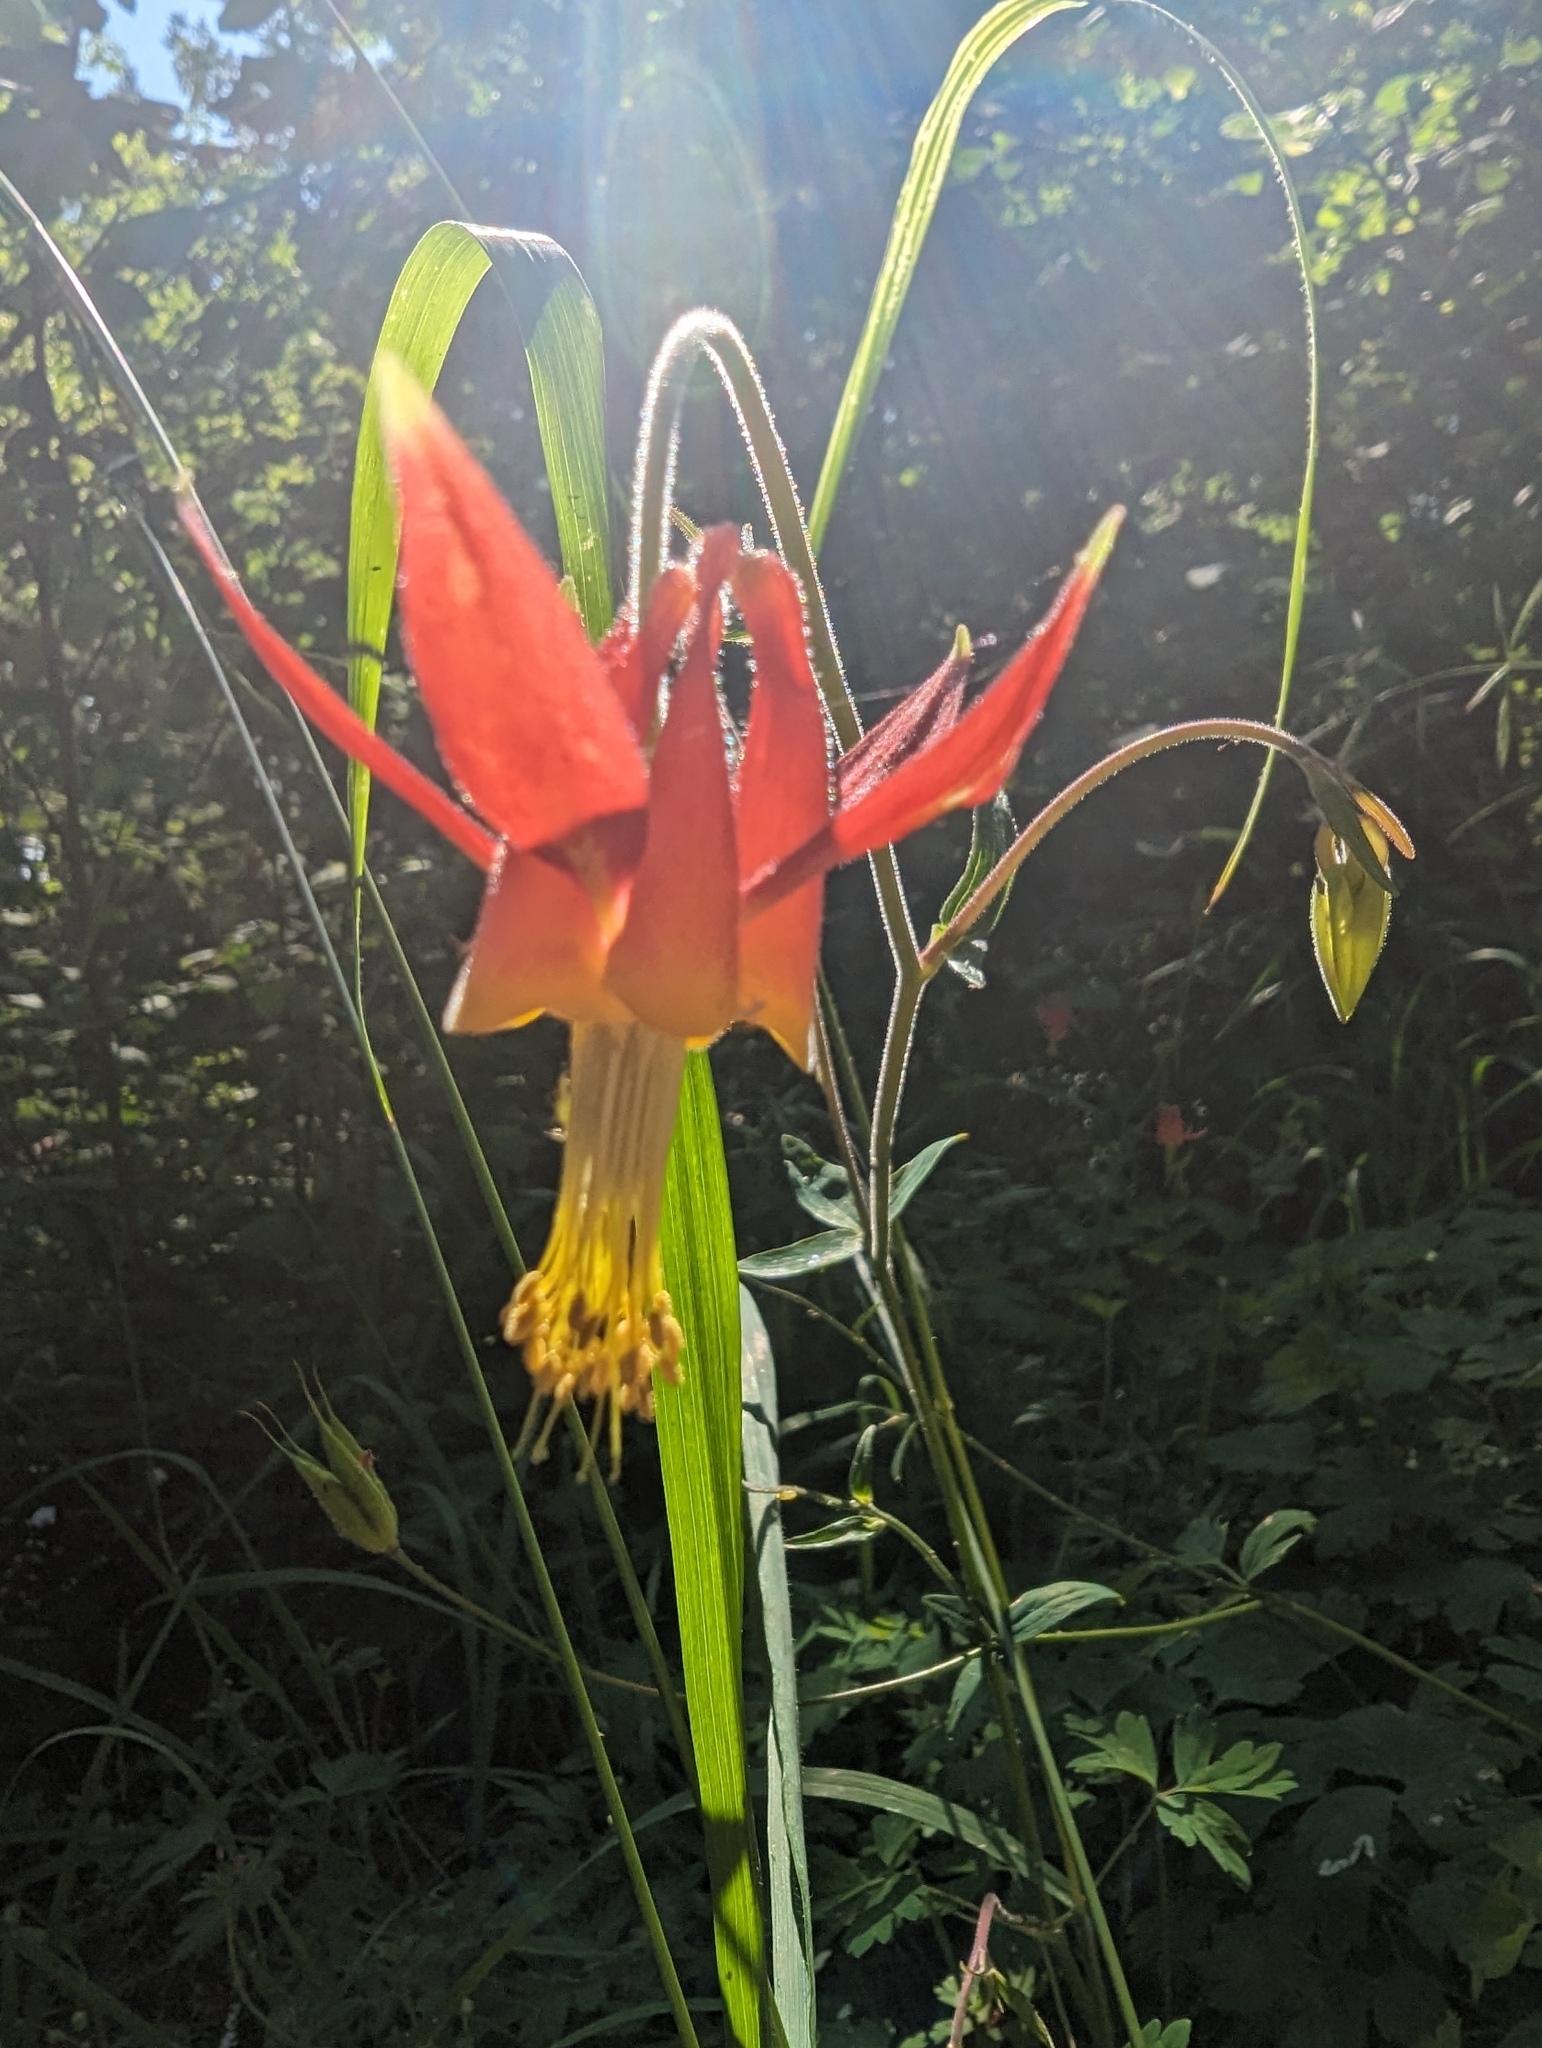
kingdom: Plantae
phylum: Tracheophyta
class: Magnoliopsida
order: Ranunculales
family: Ranunculaceae
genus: Aquilegia
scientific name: Aquilegia formosa
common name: Sitka columbine
